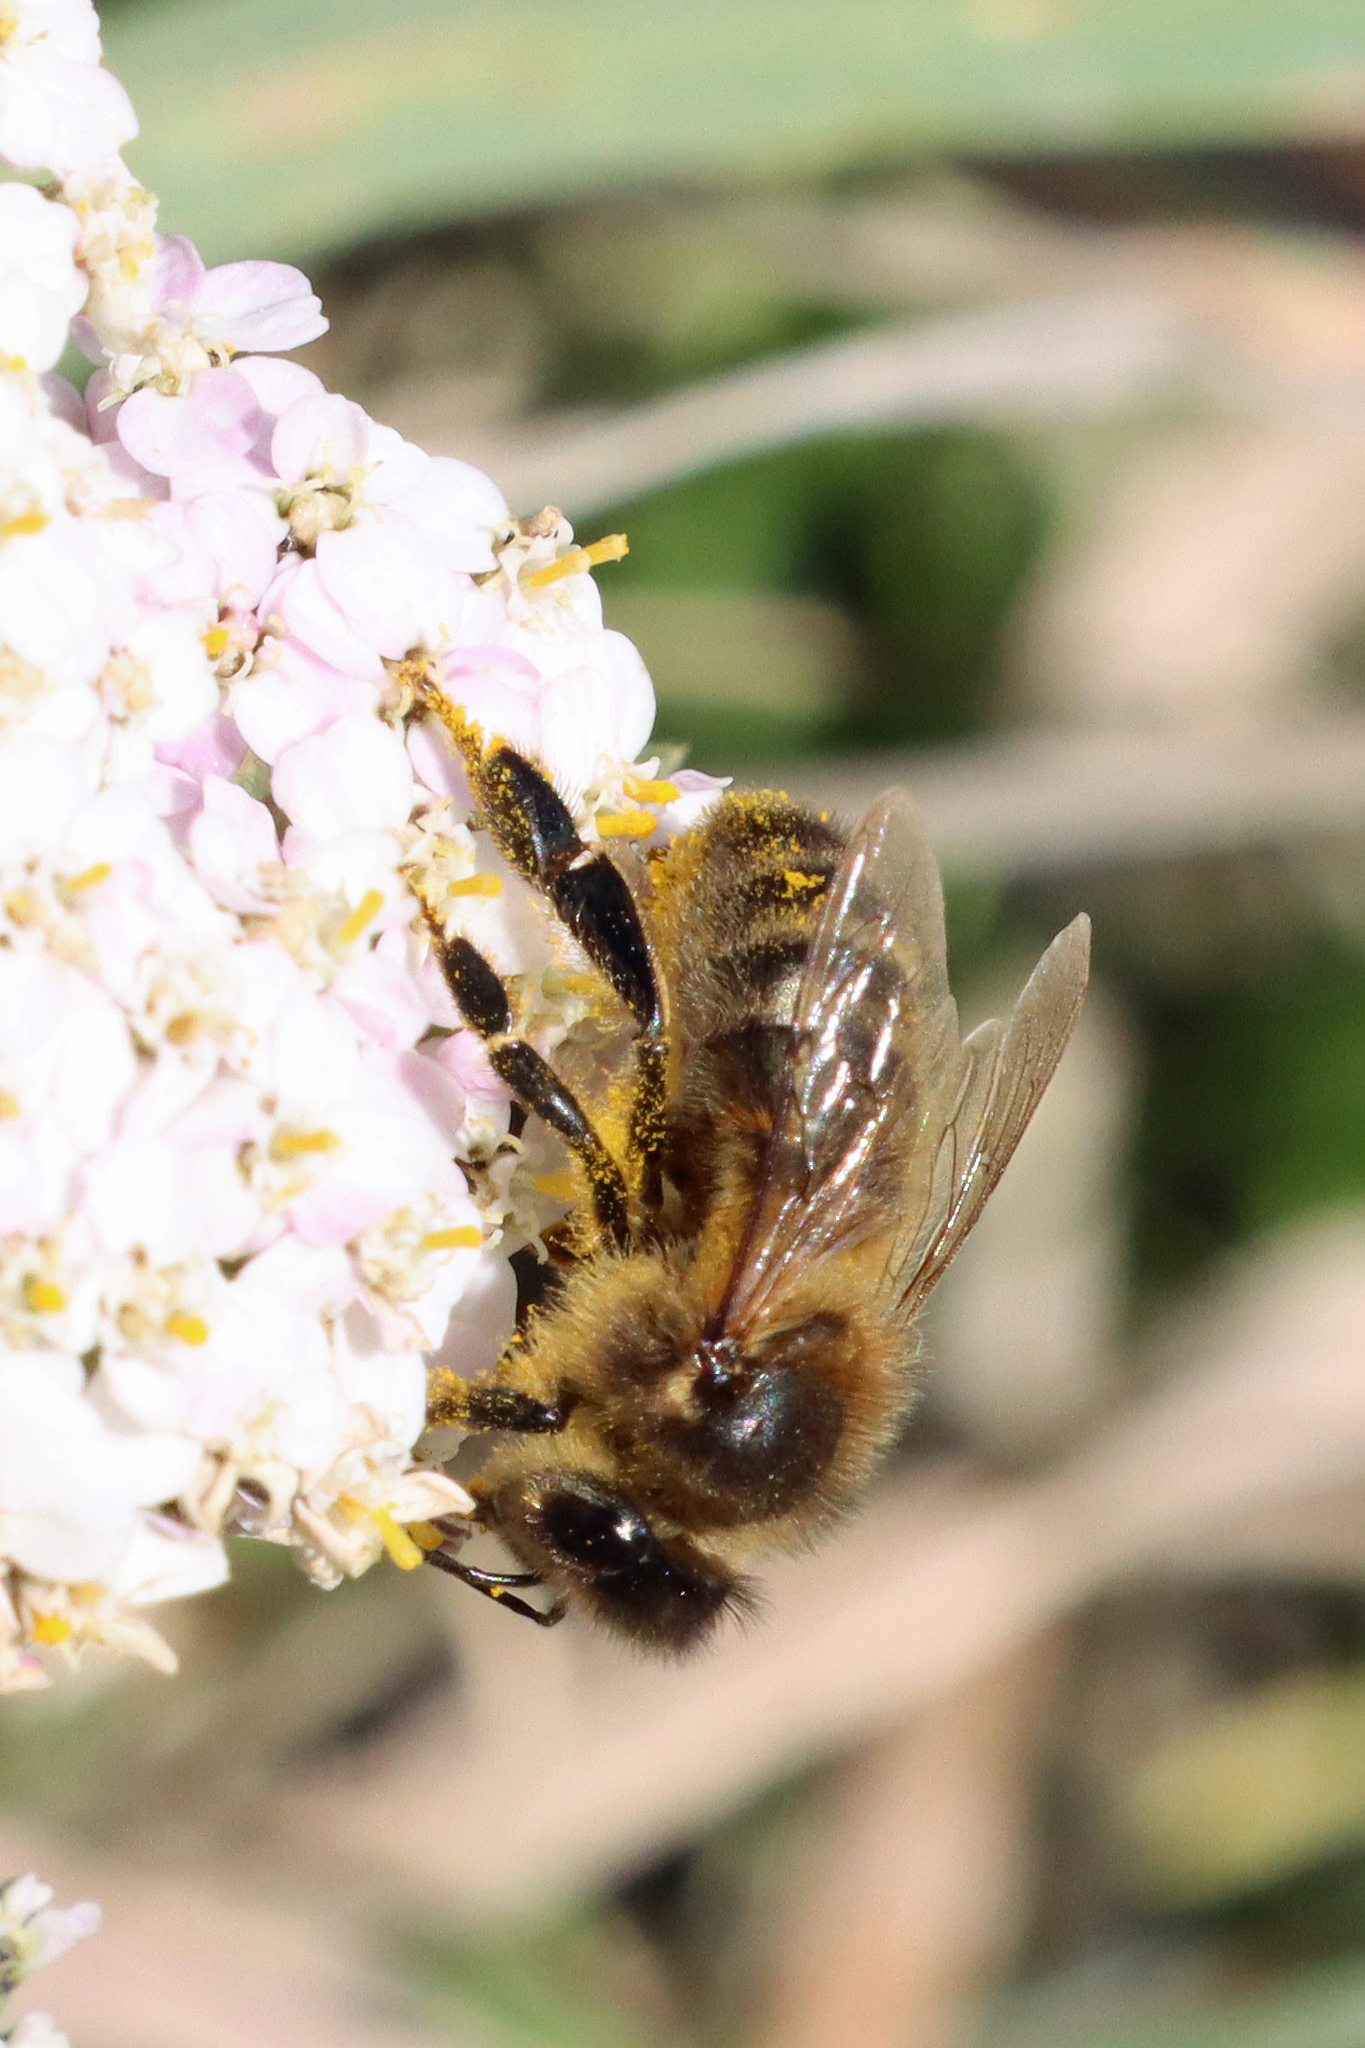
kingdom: Animalia
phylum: Arthropoda
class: Insecta
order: Hymenoptera
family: Apidae
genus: Apis
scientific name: Apis mellifera
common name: Honey bee
